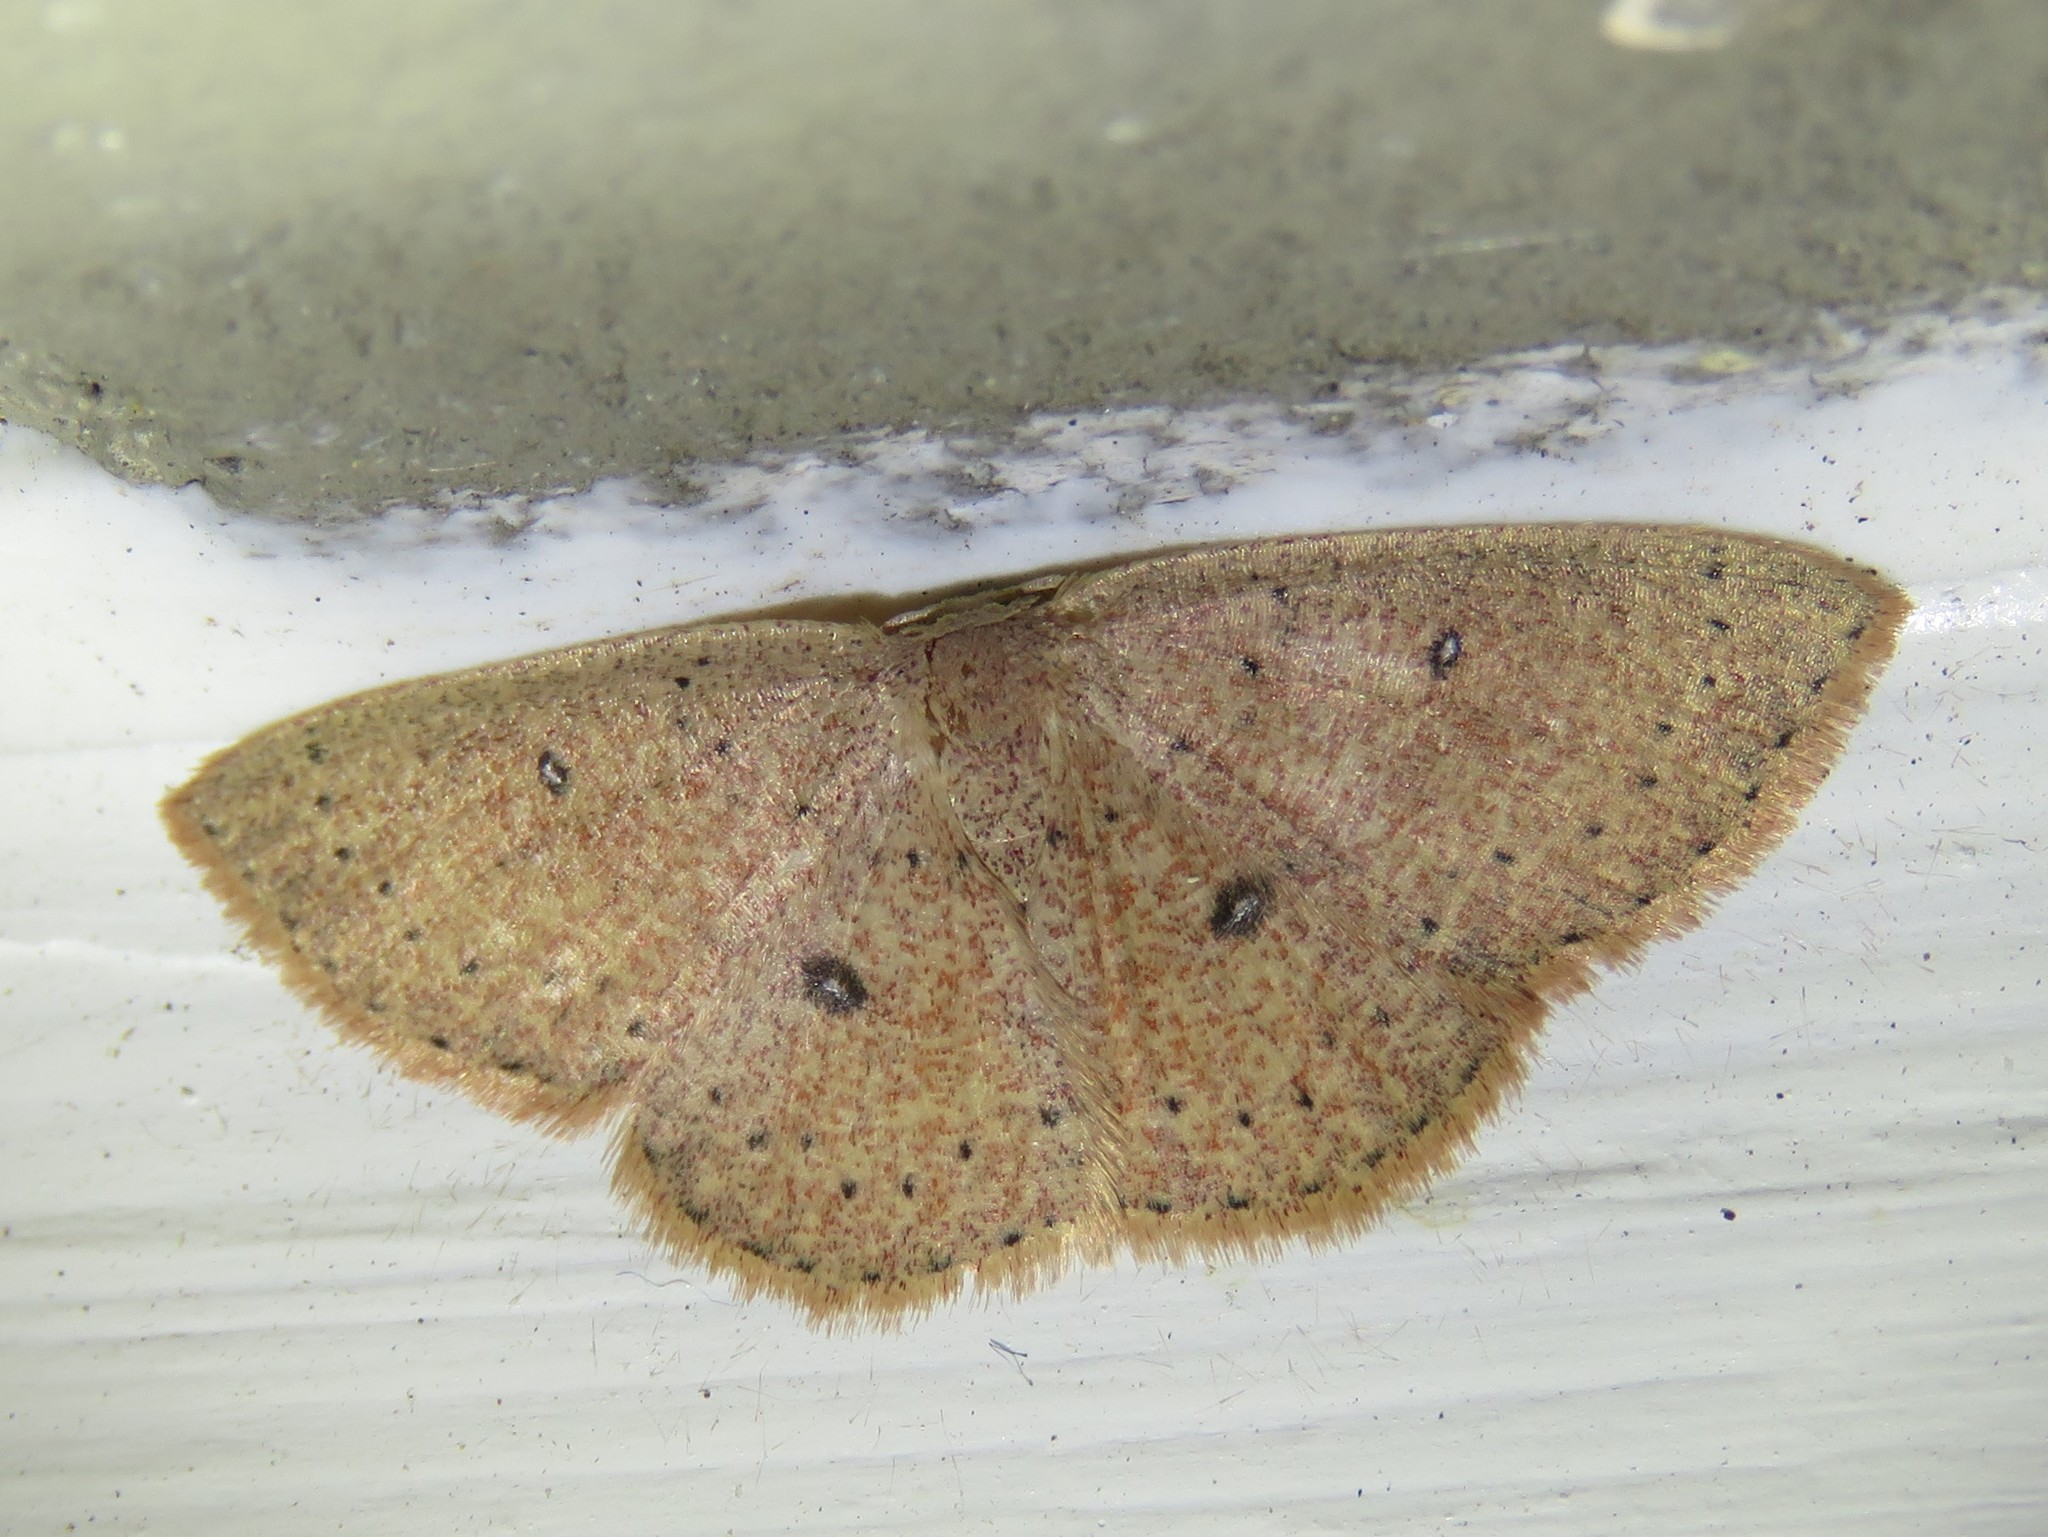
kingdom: Animalia
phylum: Arthropoda
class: Insecta
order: Lepidoptera
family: Geometridae
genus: Cyclophora
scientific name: Cyclophora packardi
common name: Packard's wave
